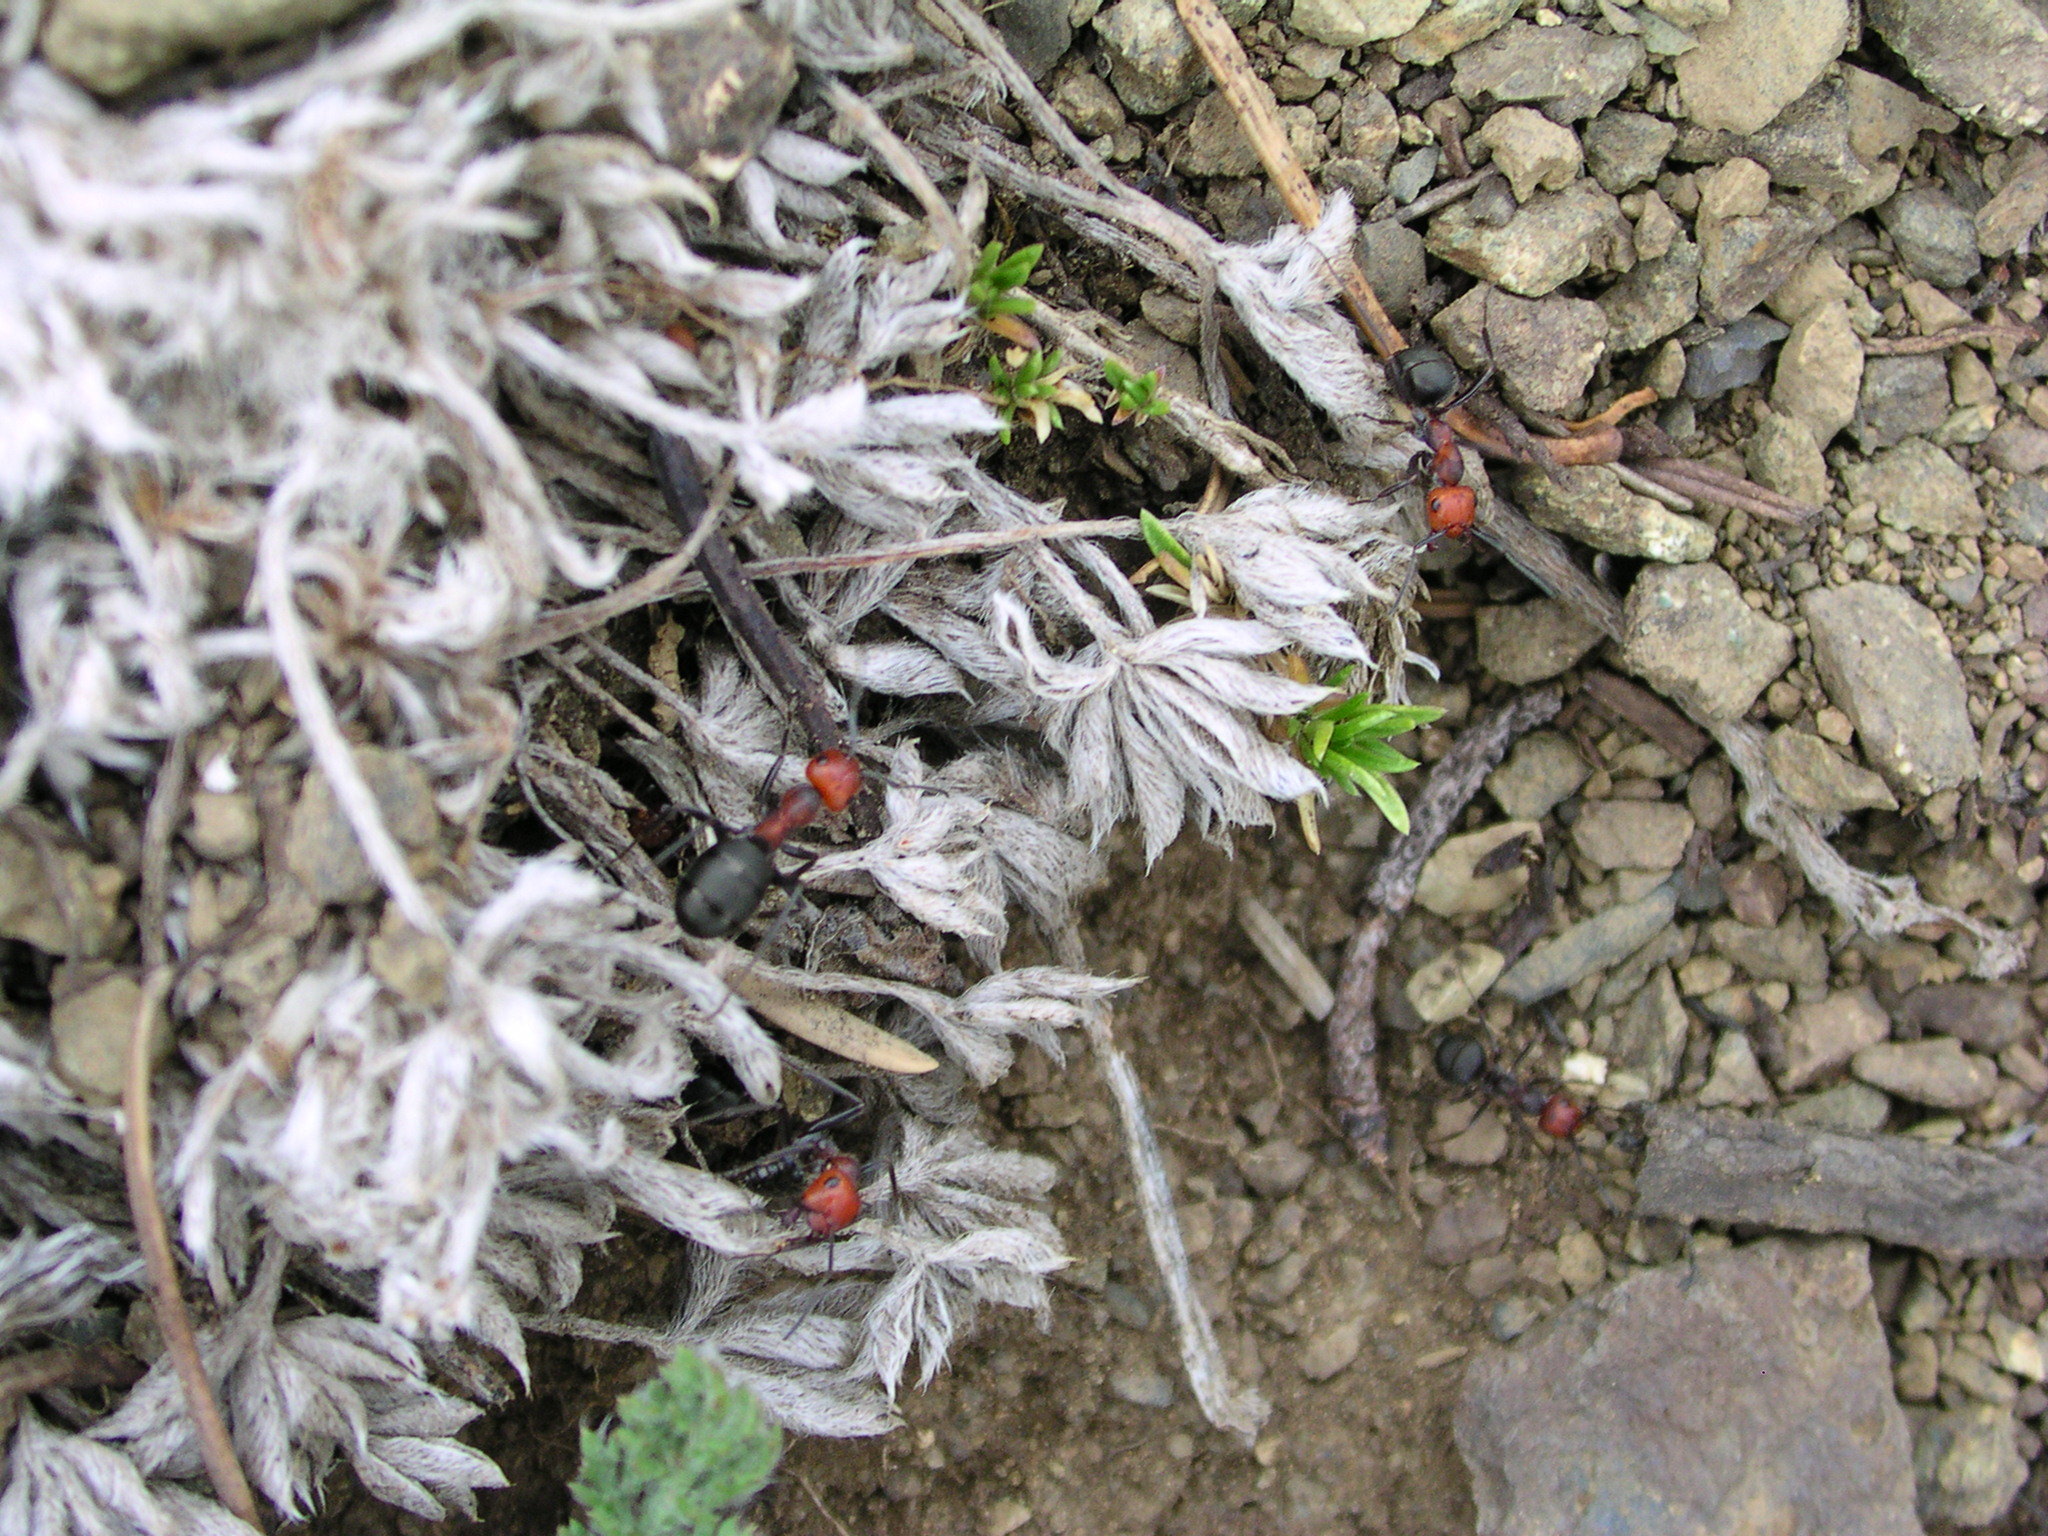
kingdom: Animalia
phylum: Arthropoda
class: Insecta
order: Hymenoptera
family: Formicidae
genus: Formica
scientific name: Formica obscuripes
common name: Western thatching ant
